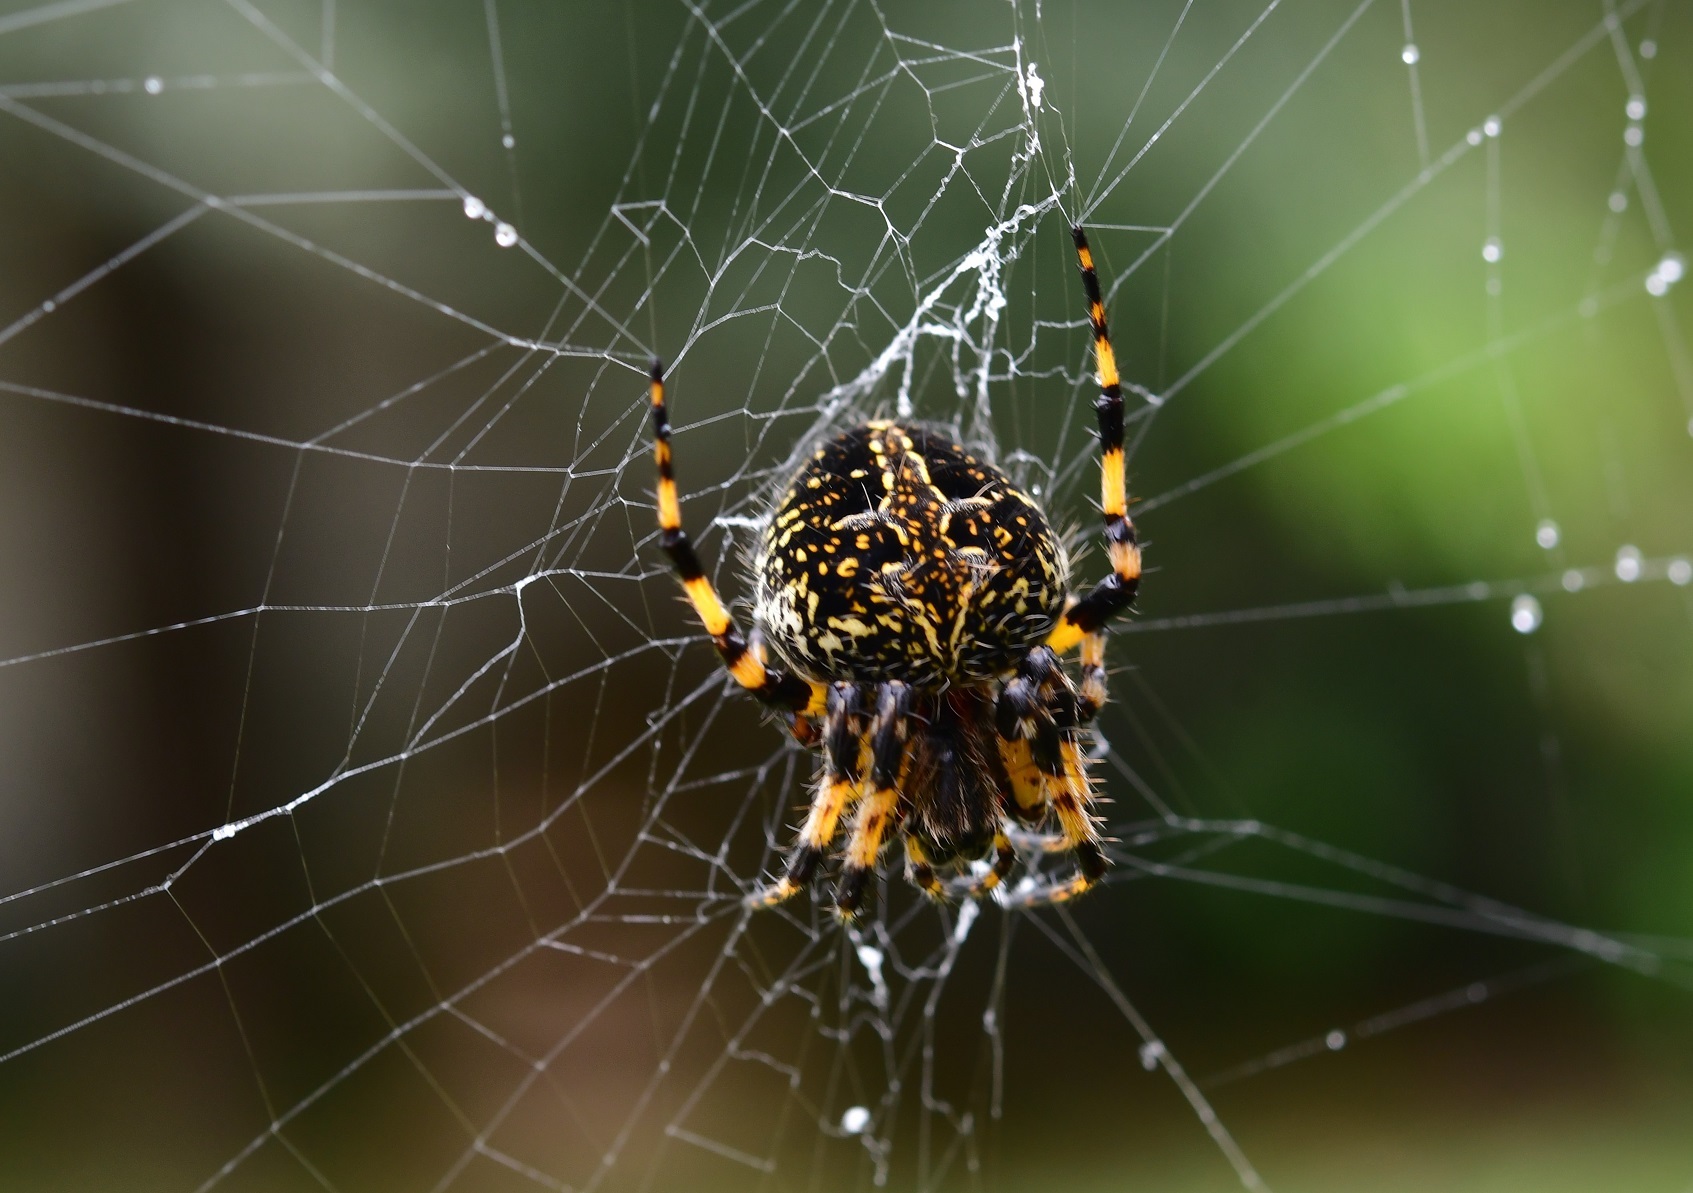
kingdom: Animalia
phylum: Arthropoda
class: Arachnida
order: Araneae
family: Araneidae
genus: Neoscona
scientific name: Neoscona orizabensis
